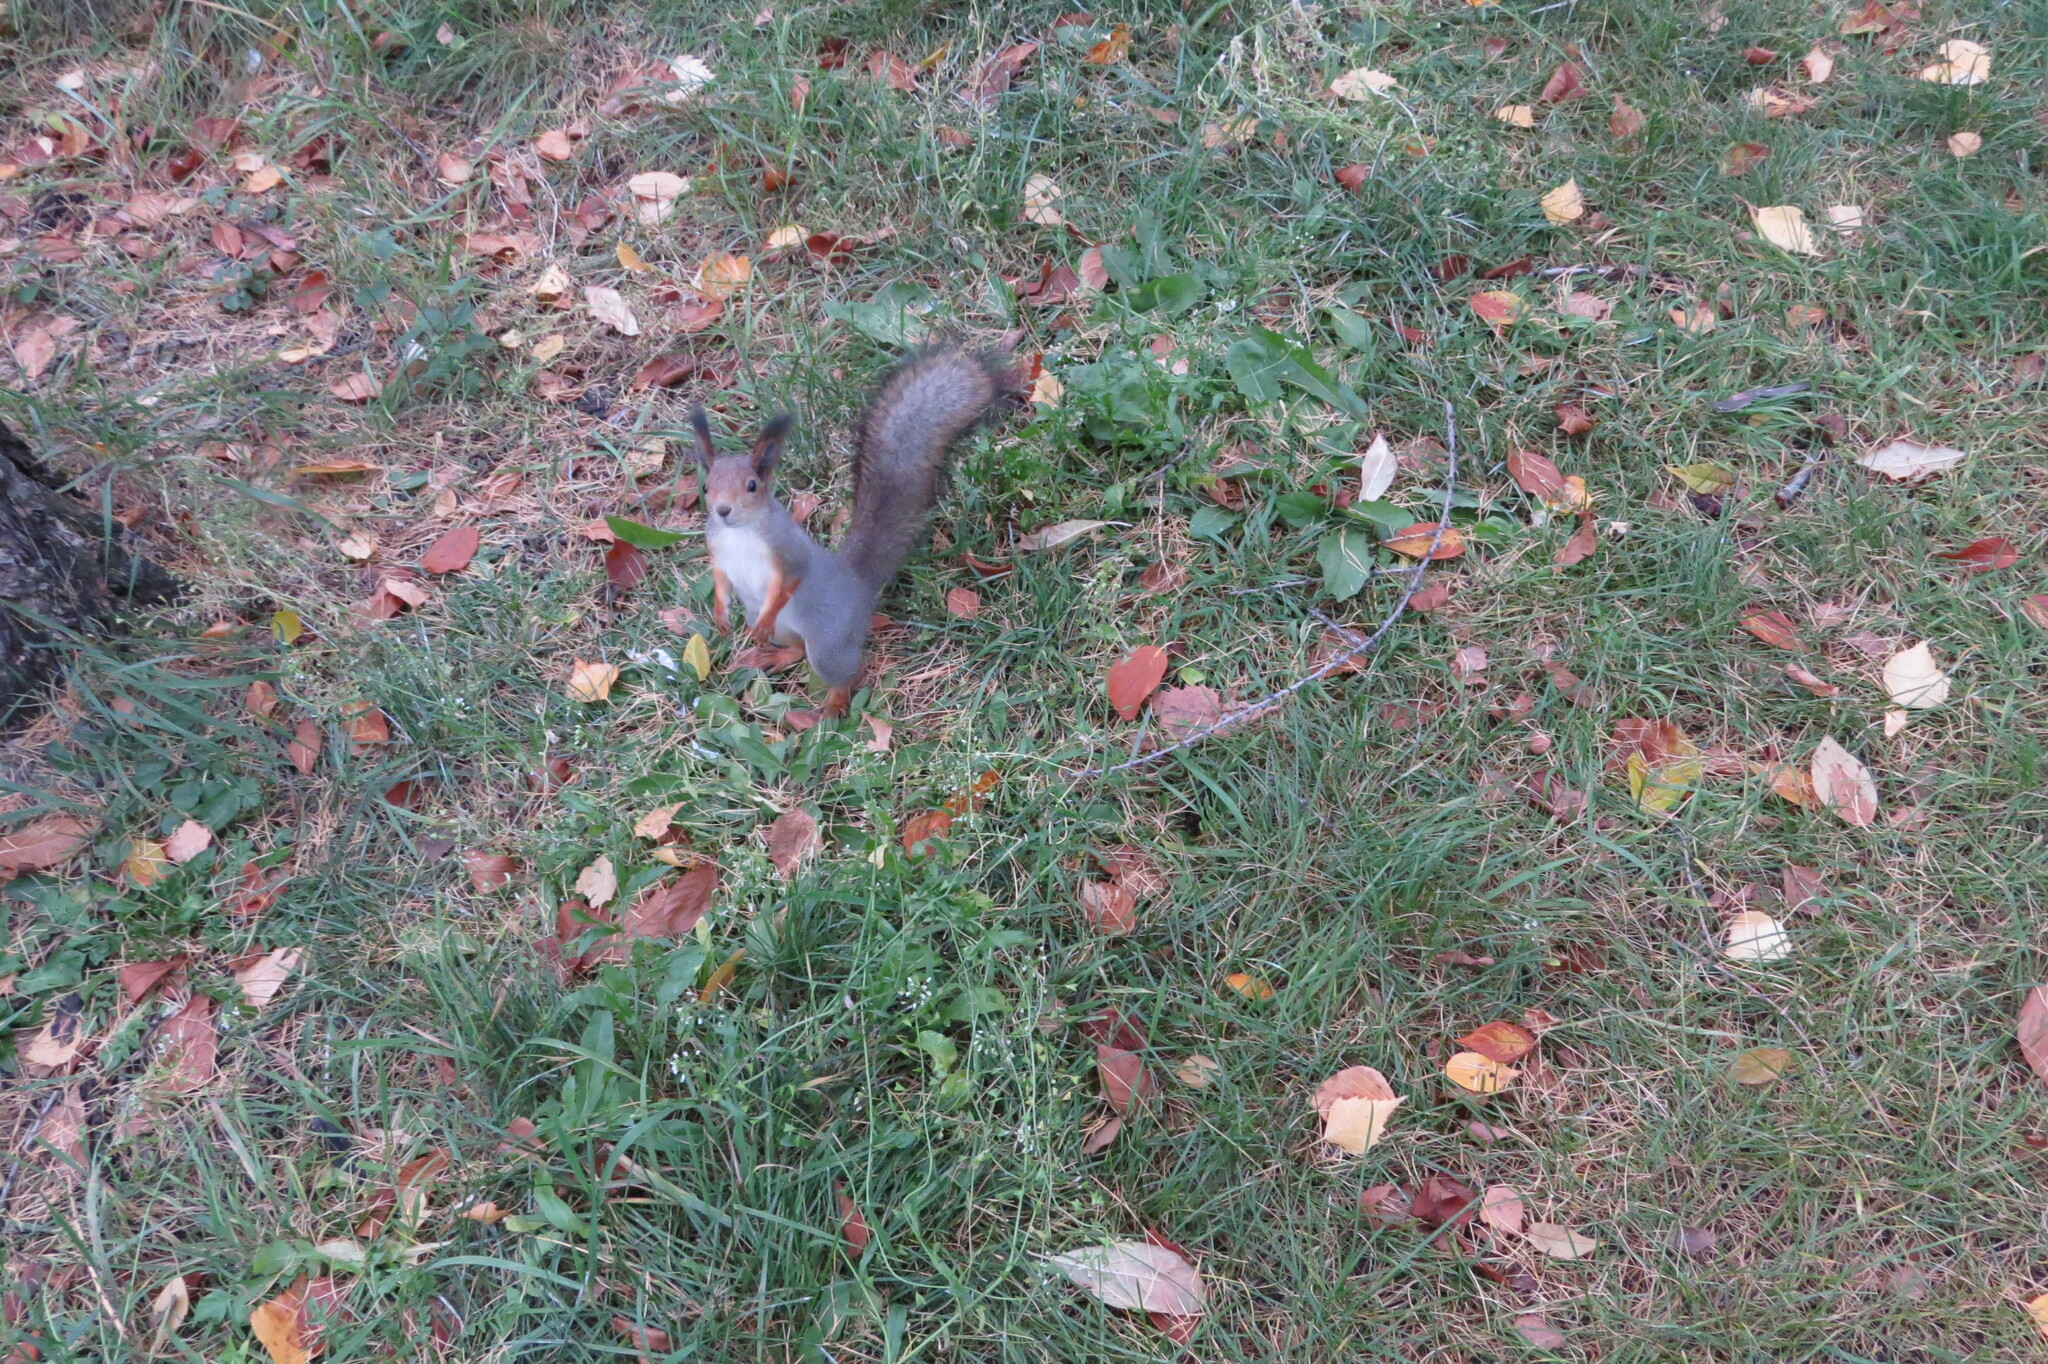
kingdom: Animalia
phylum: Chordata
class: Mammalia
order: Rodentia
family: Sciuridae
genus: Sciurus
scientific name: Sciurus vulgaris
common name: Eurasian red squirrel
